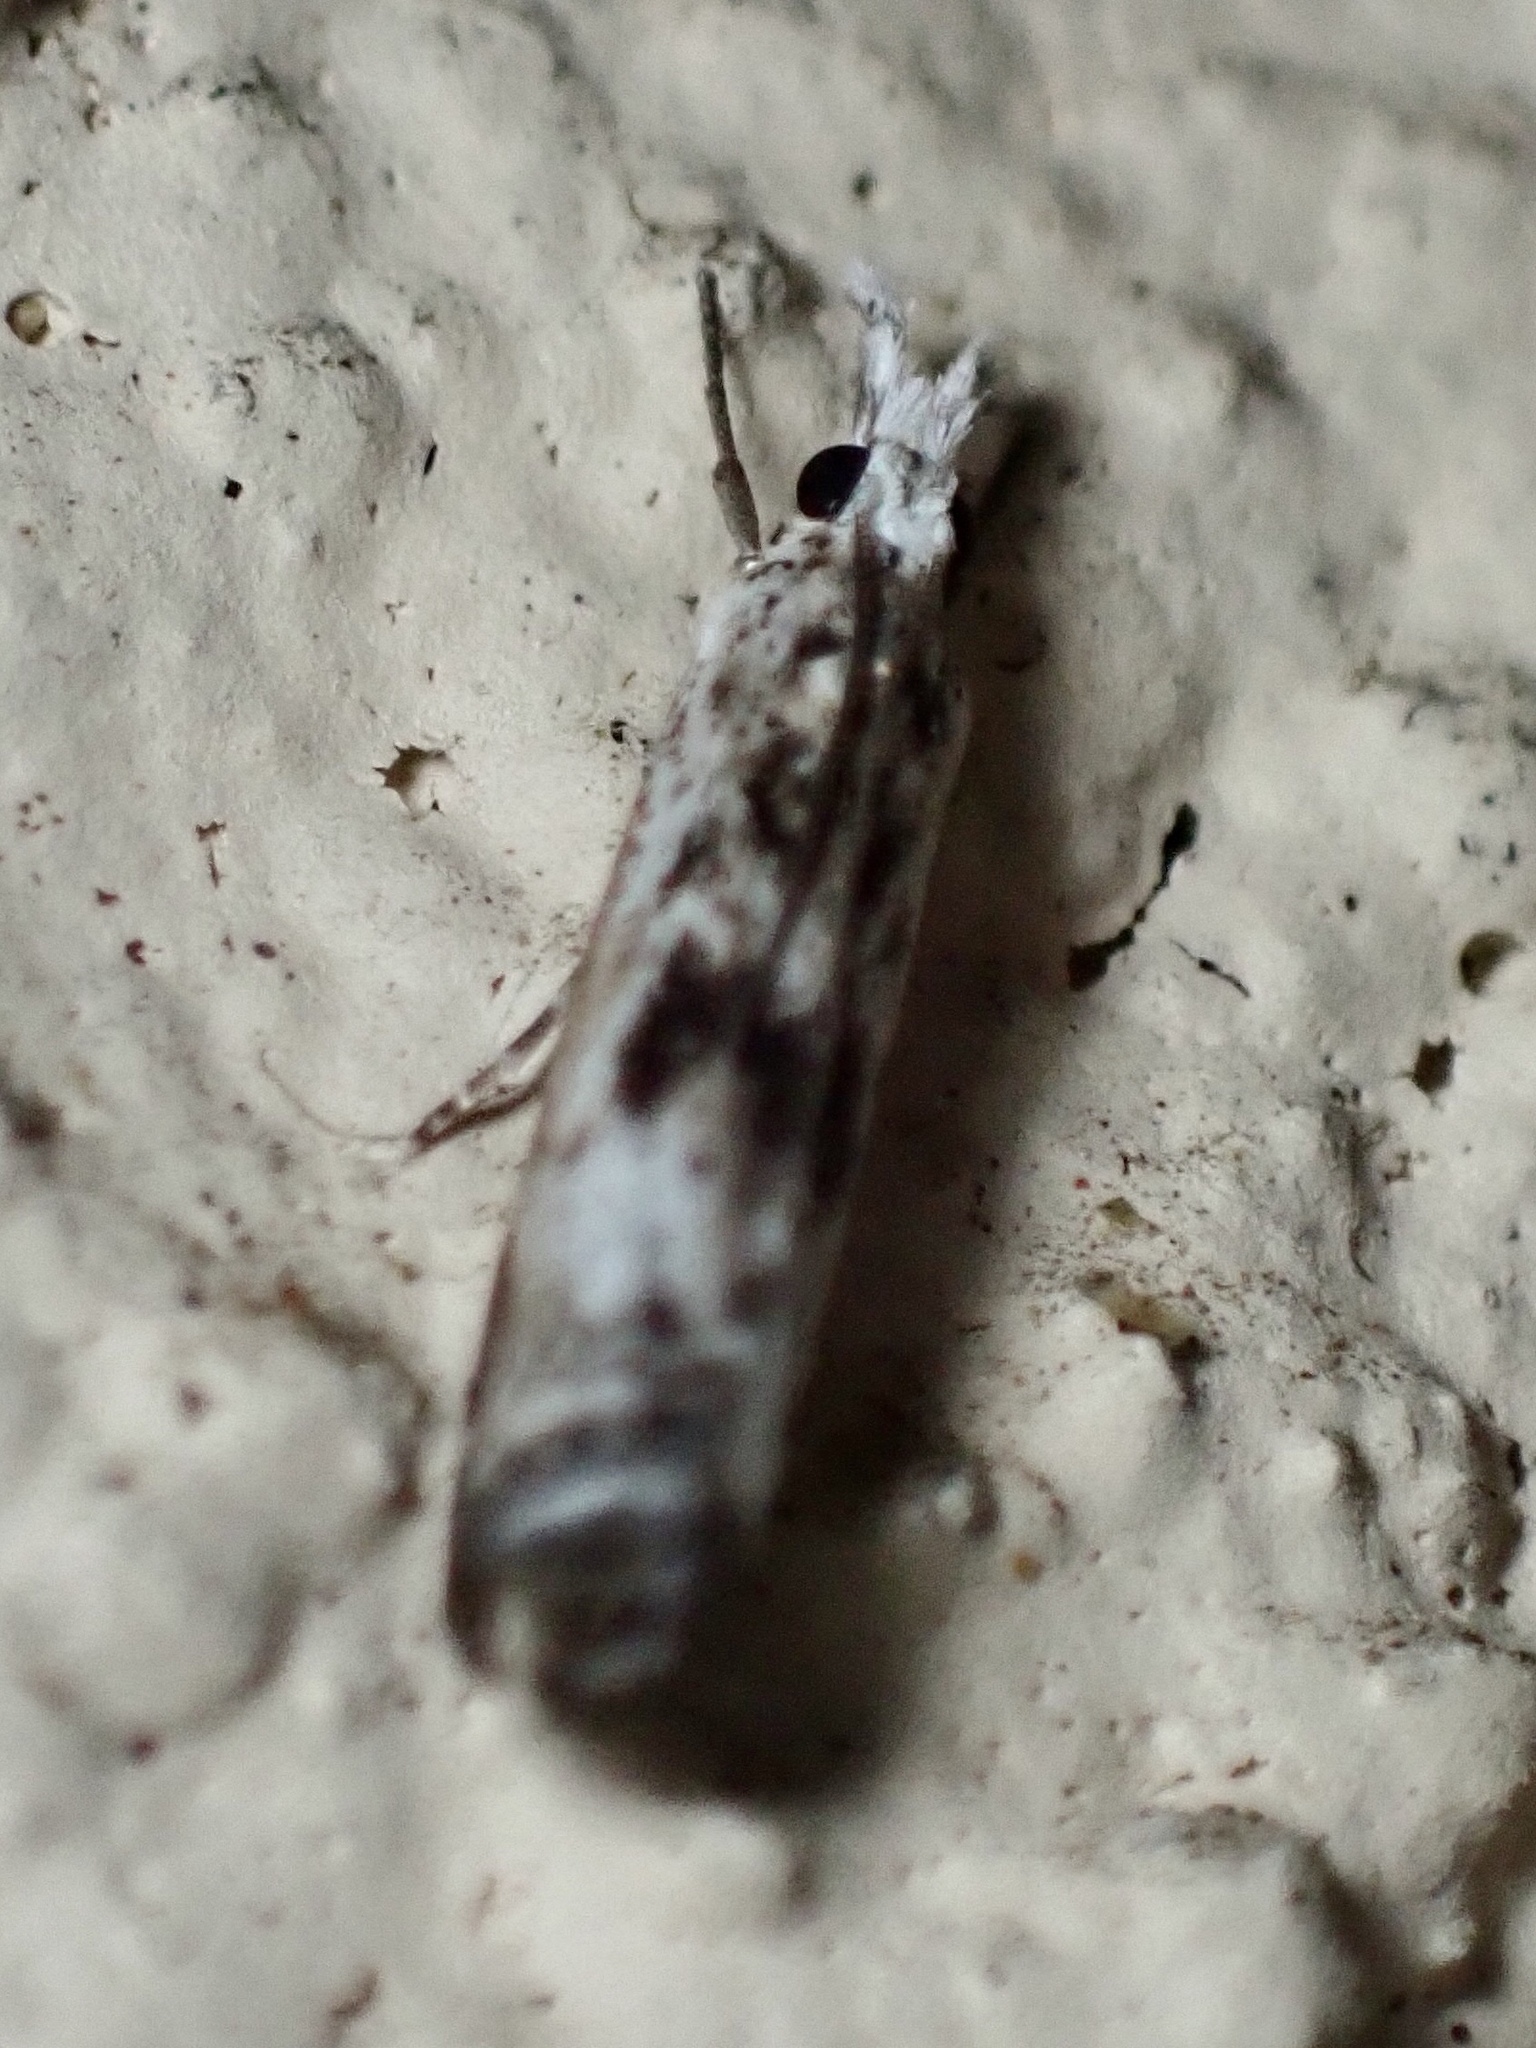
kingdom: Animalia
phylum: Arthropoda
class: Insecta
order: Lepidoptera
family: Crambidae
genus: Microcrambus
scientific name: Microcrambus elegans
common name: Elegant grass-veneer
